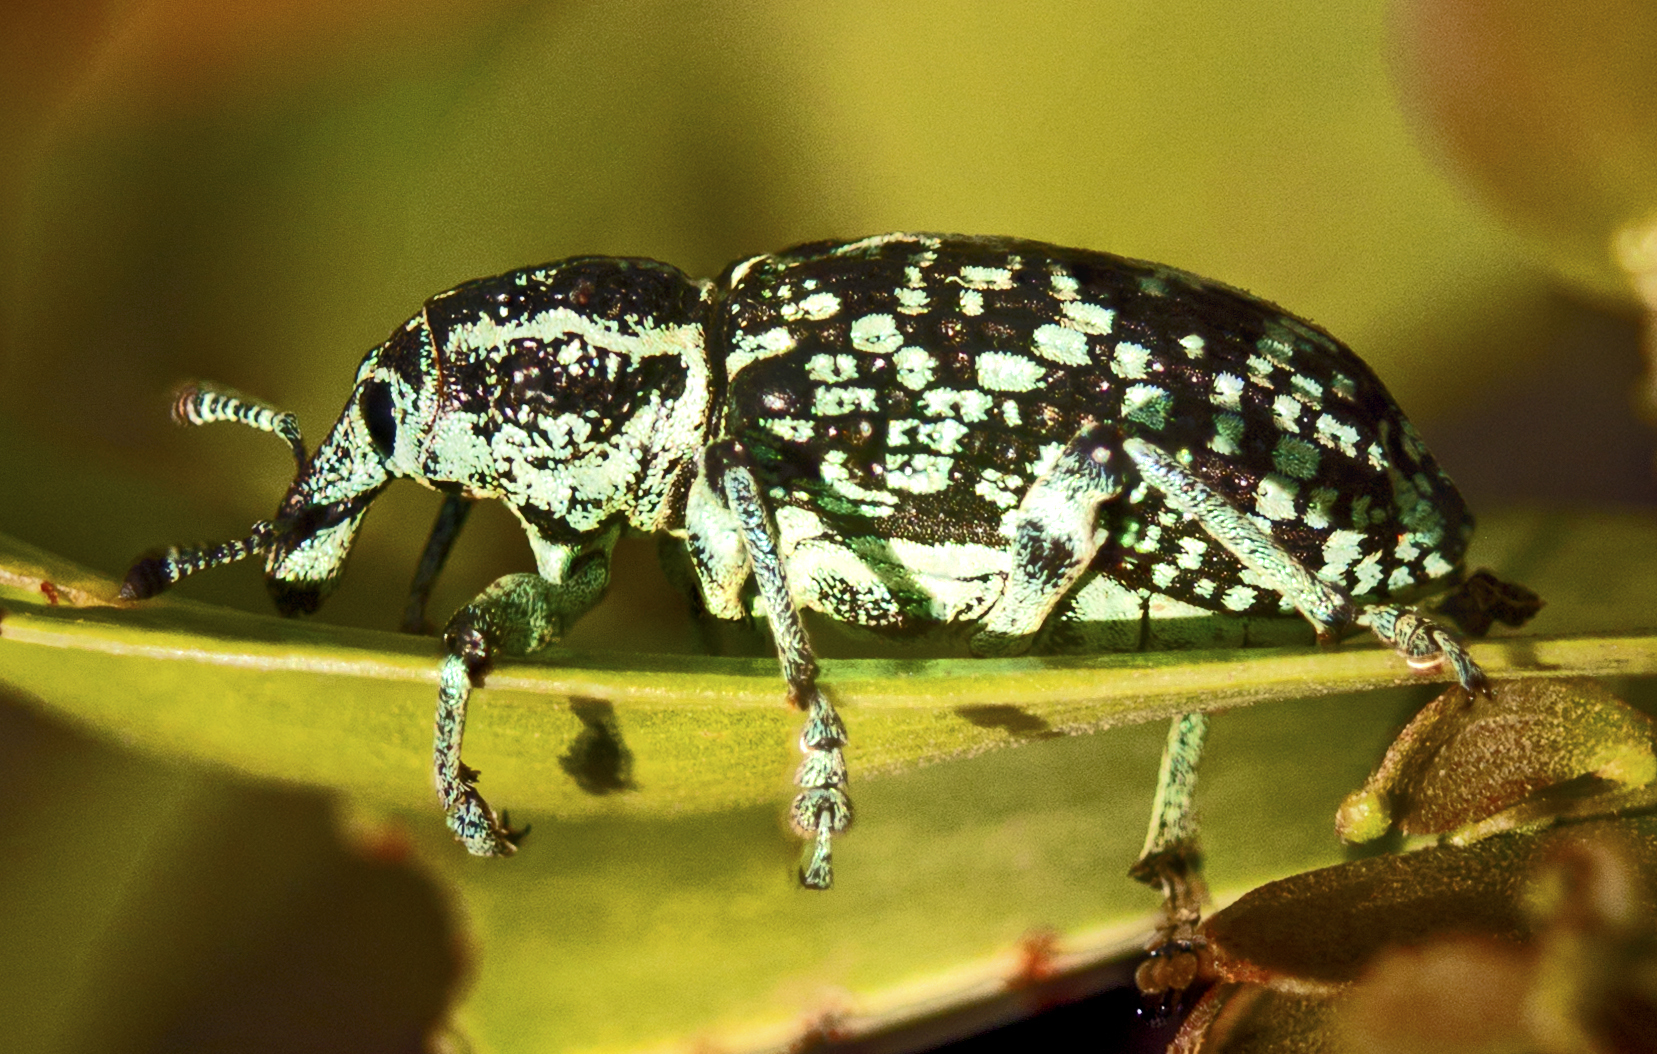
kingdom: Animalia
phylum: Arthropoda
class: Insecta
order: Coleoptera
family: Curculionidae
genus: Chrysolopus
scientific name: Chrysolopus spectabilis
